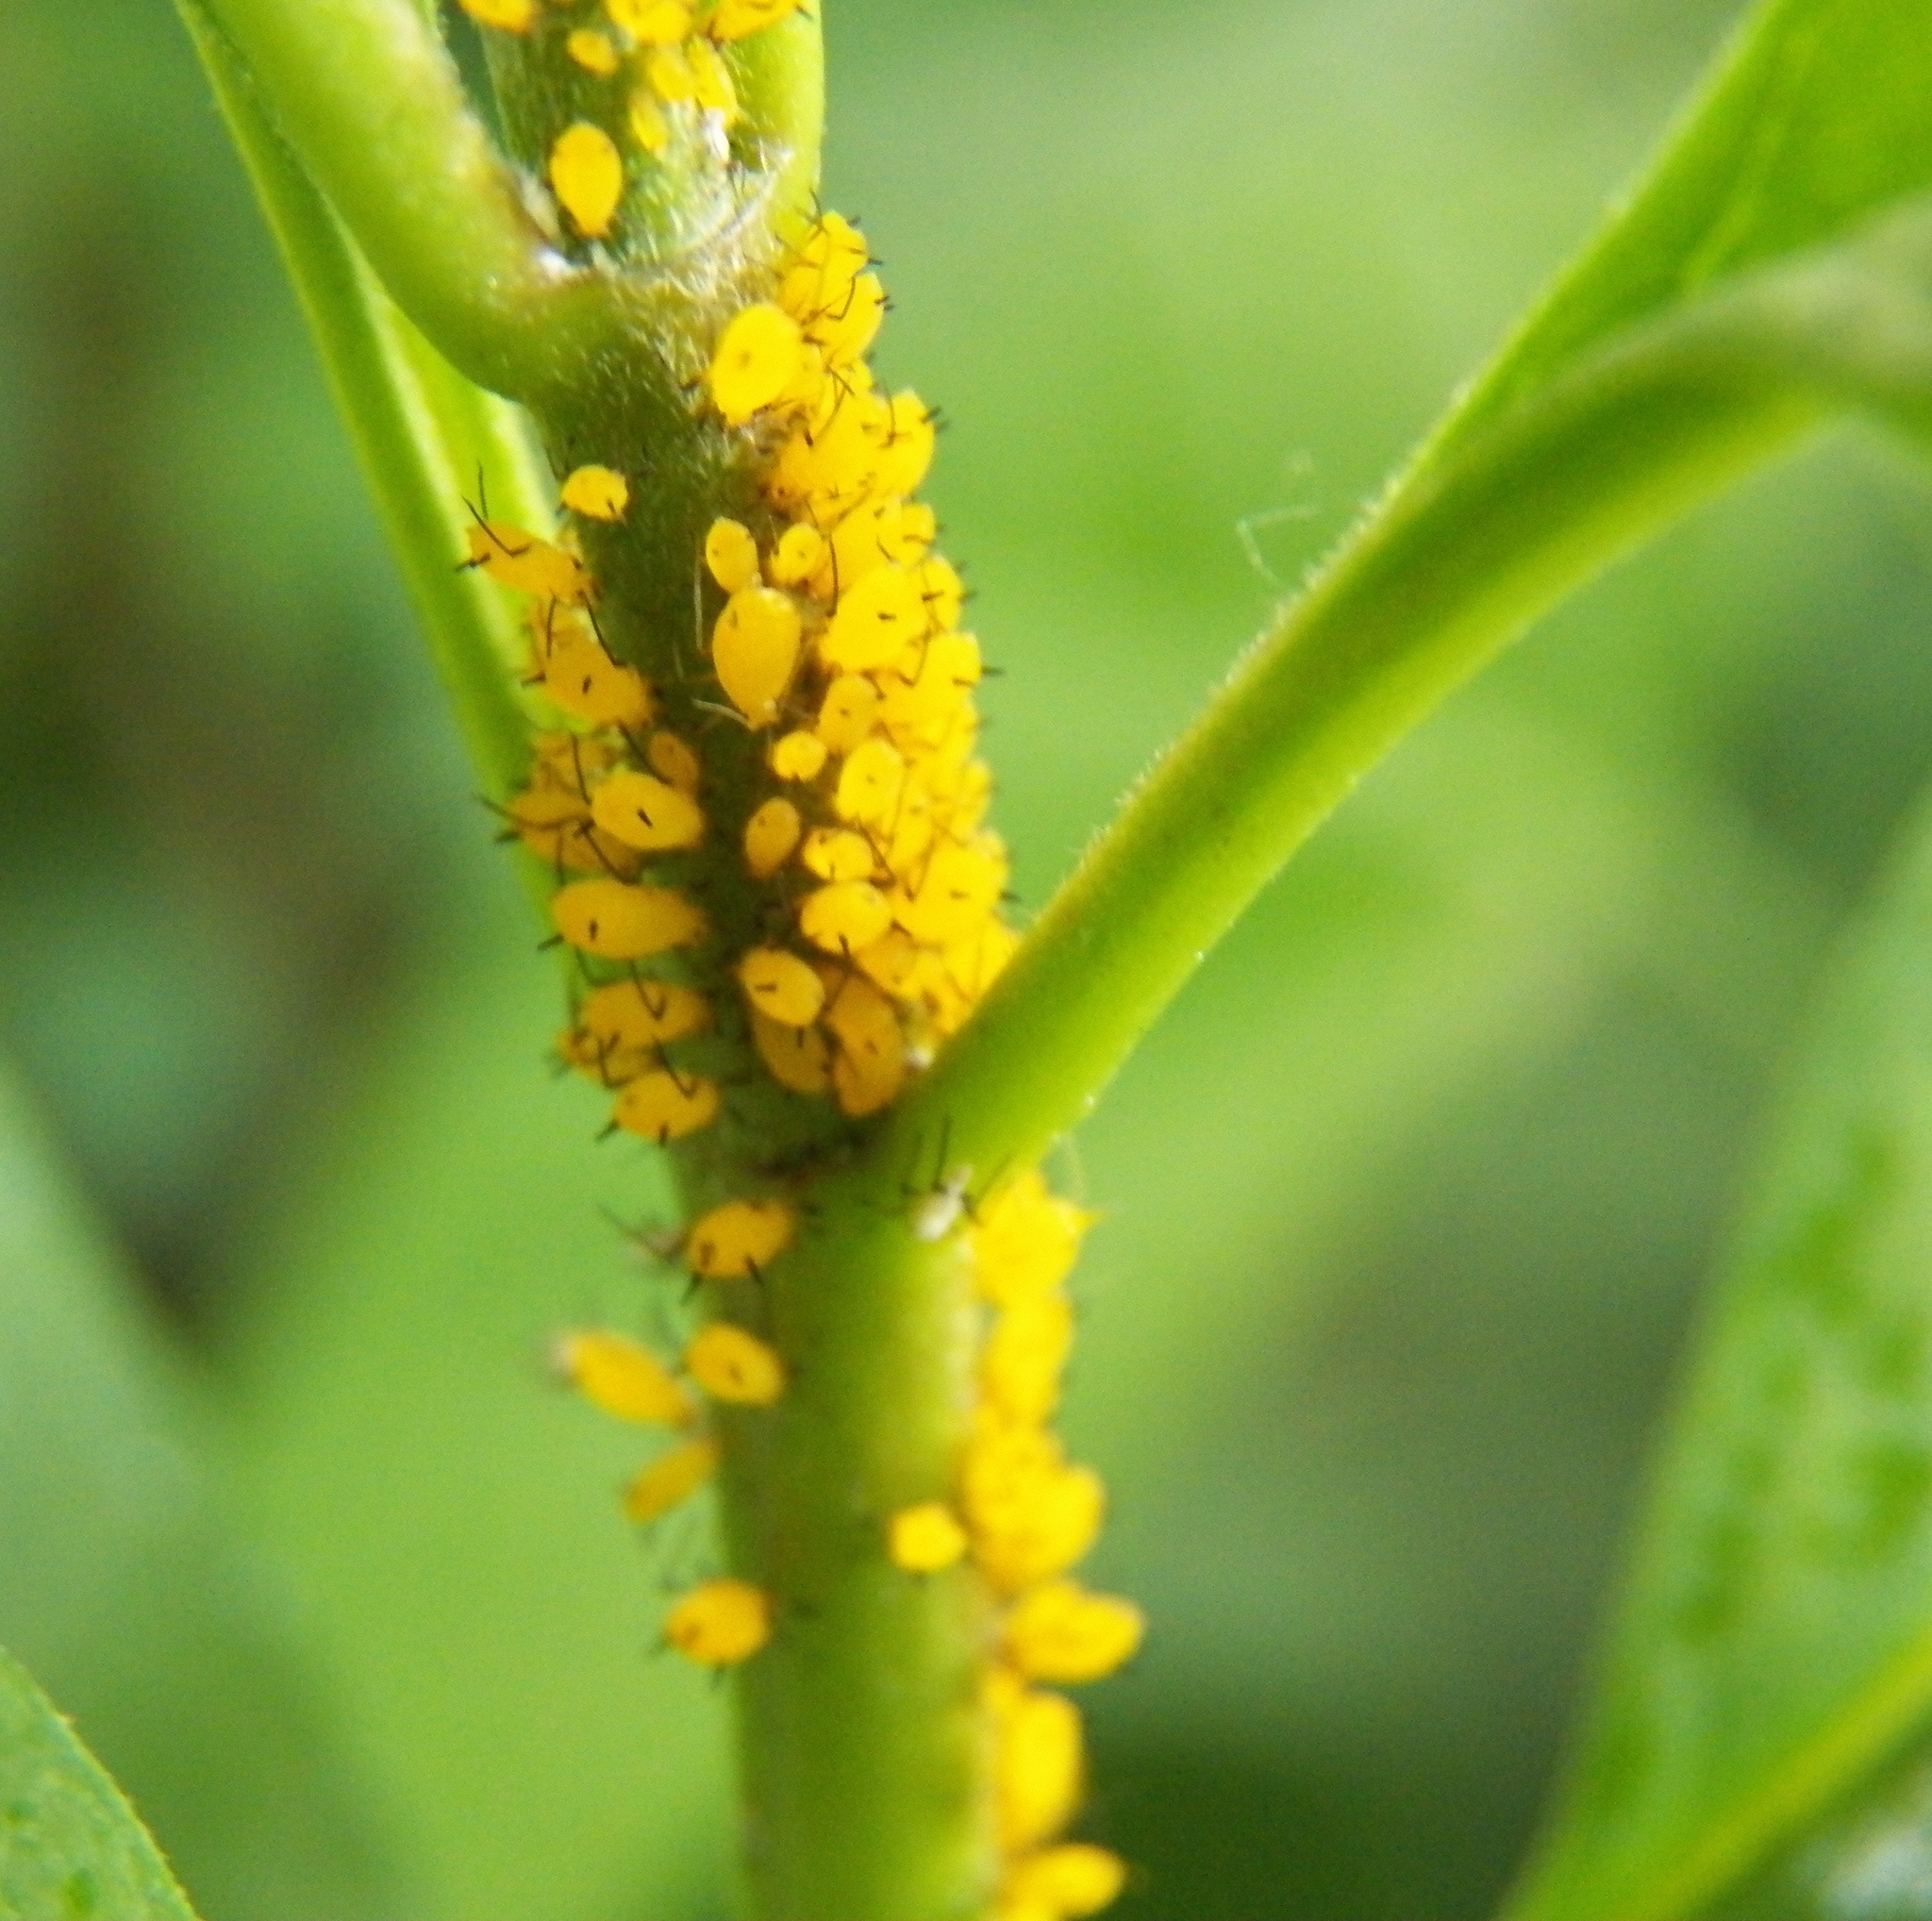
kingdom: Animalia
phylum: Arthropoda
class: Insecta
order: Hemiptera
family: Aphididae
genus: Aphis
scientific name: Aphis nerii
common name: Oleander aphid
